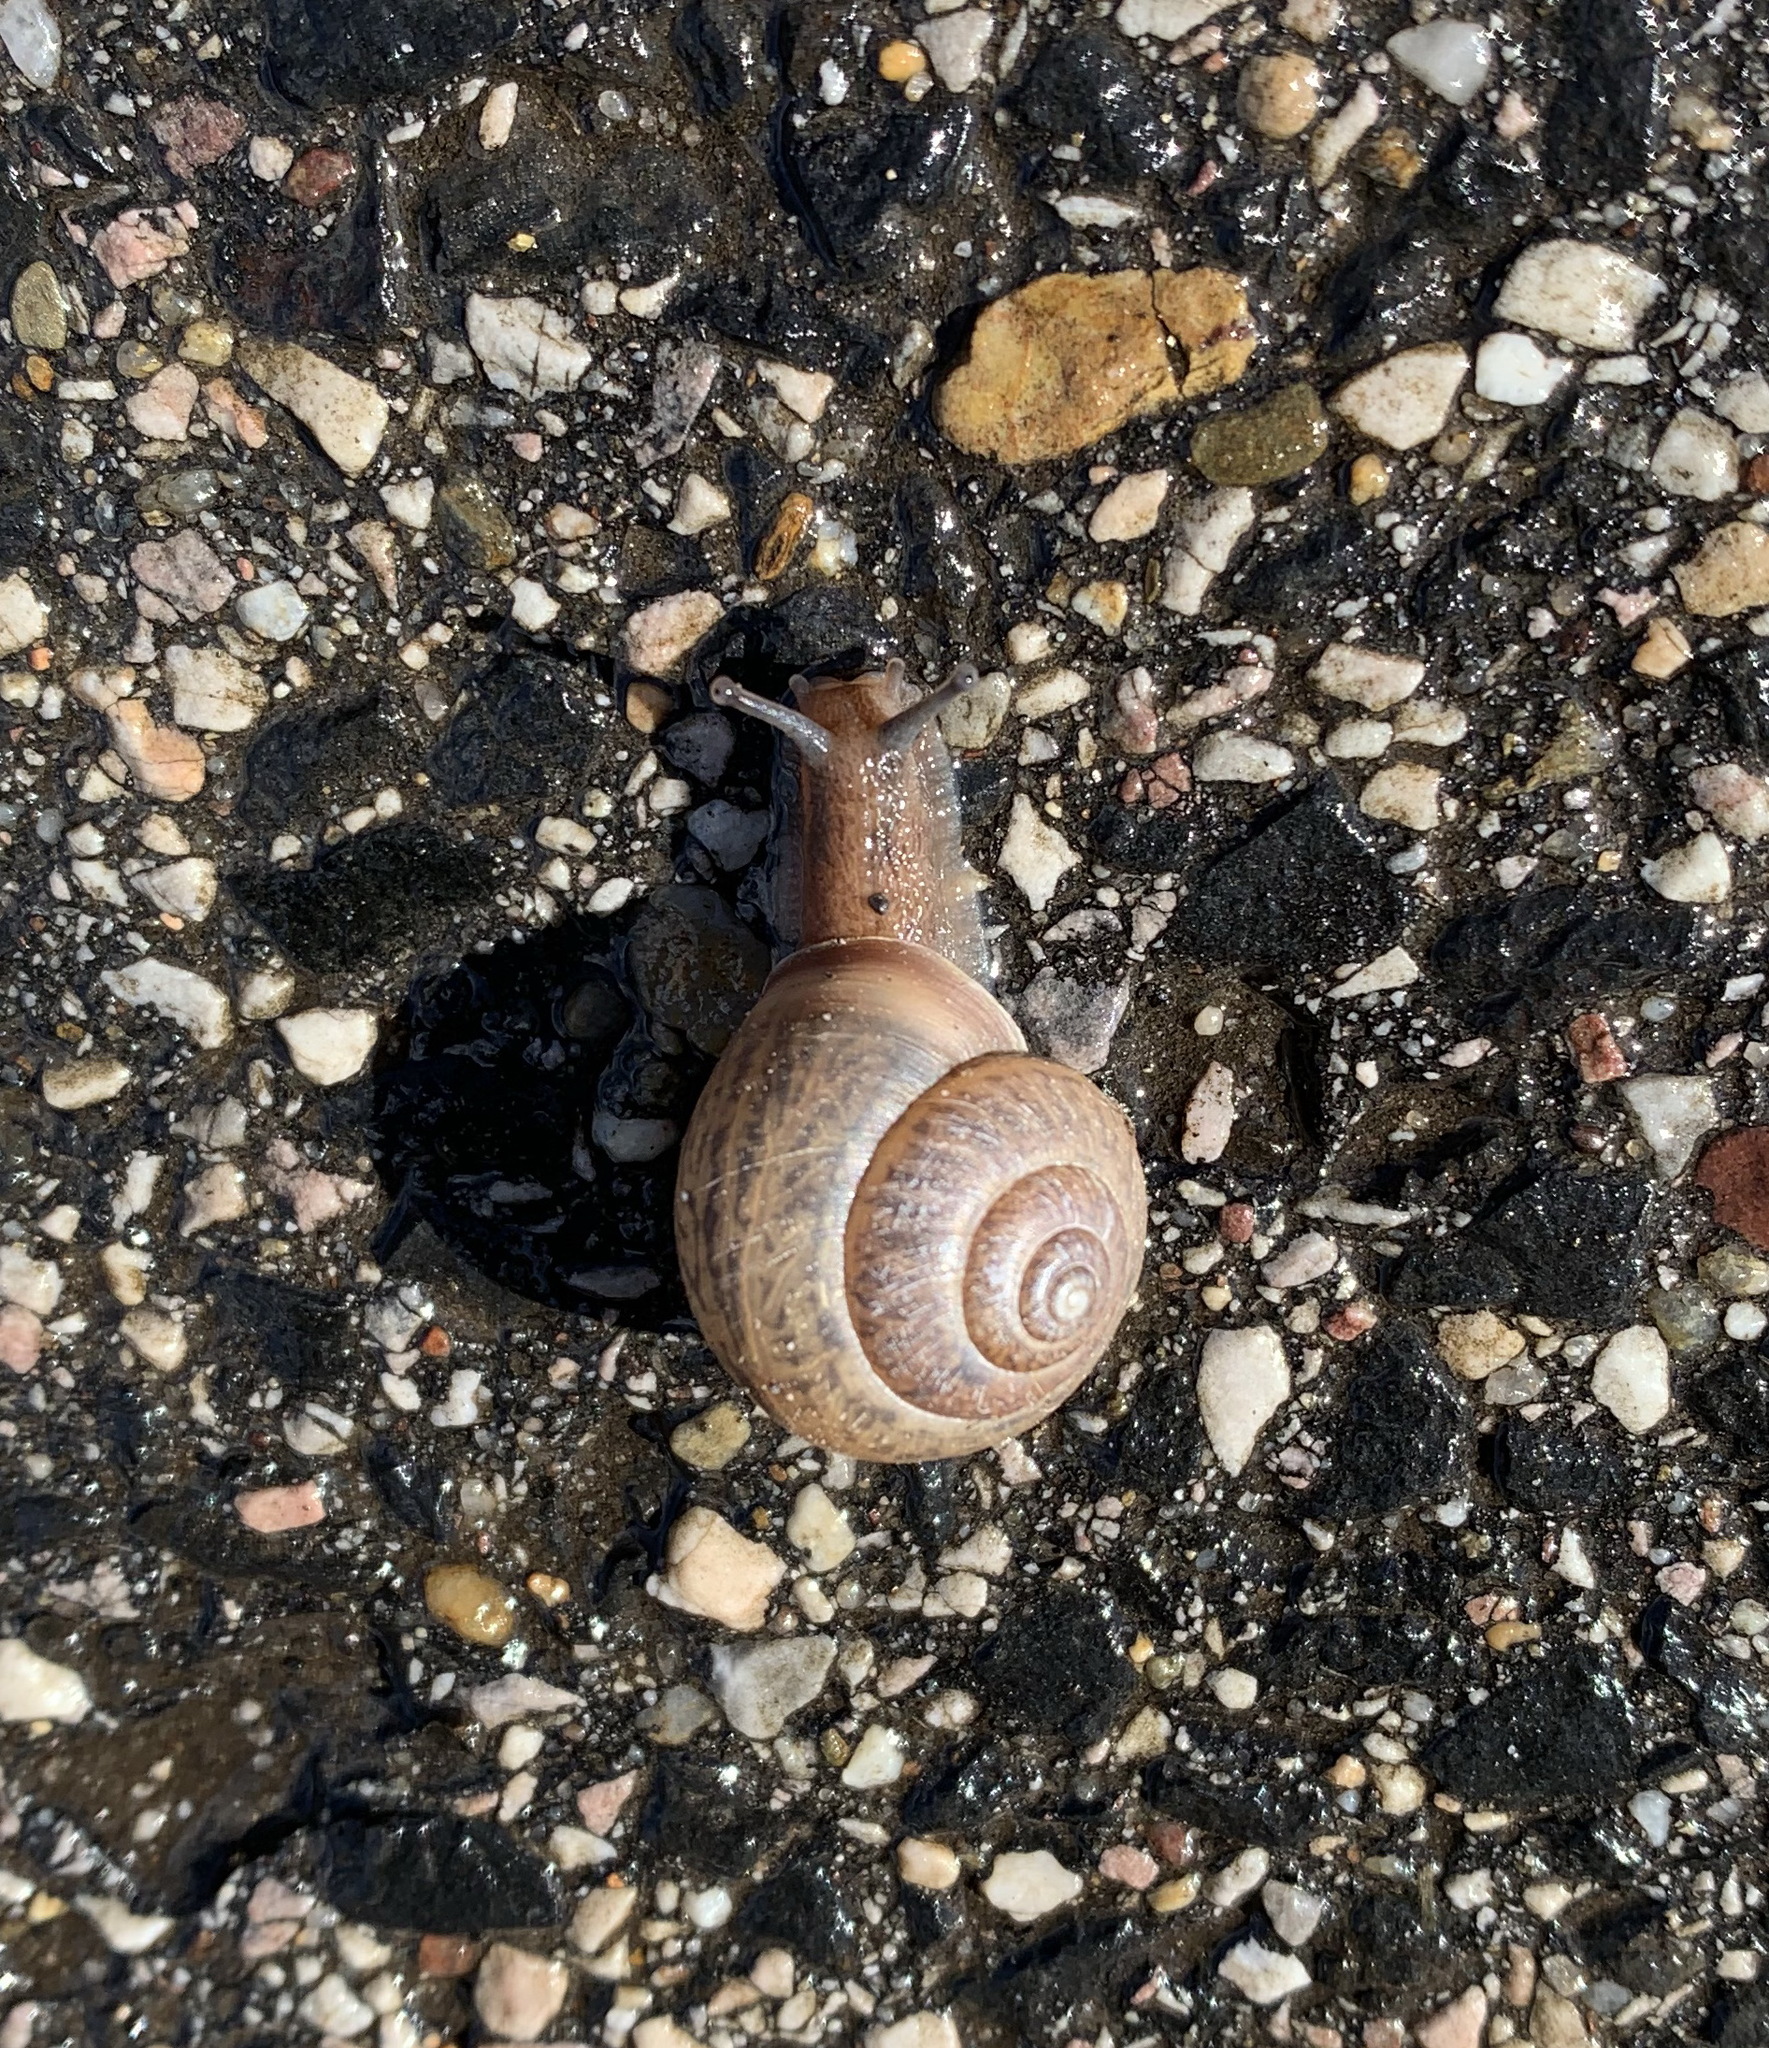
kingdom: Animalia
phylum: Mollusca
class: Gastropoda
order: Stylommatophora
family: Camaenidae
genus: Fruticicola
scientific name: Fruticicola fruticum
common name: Bush snail
